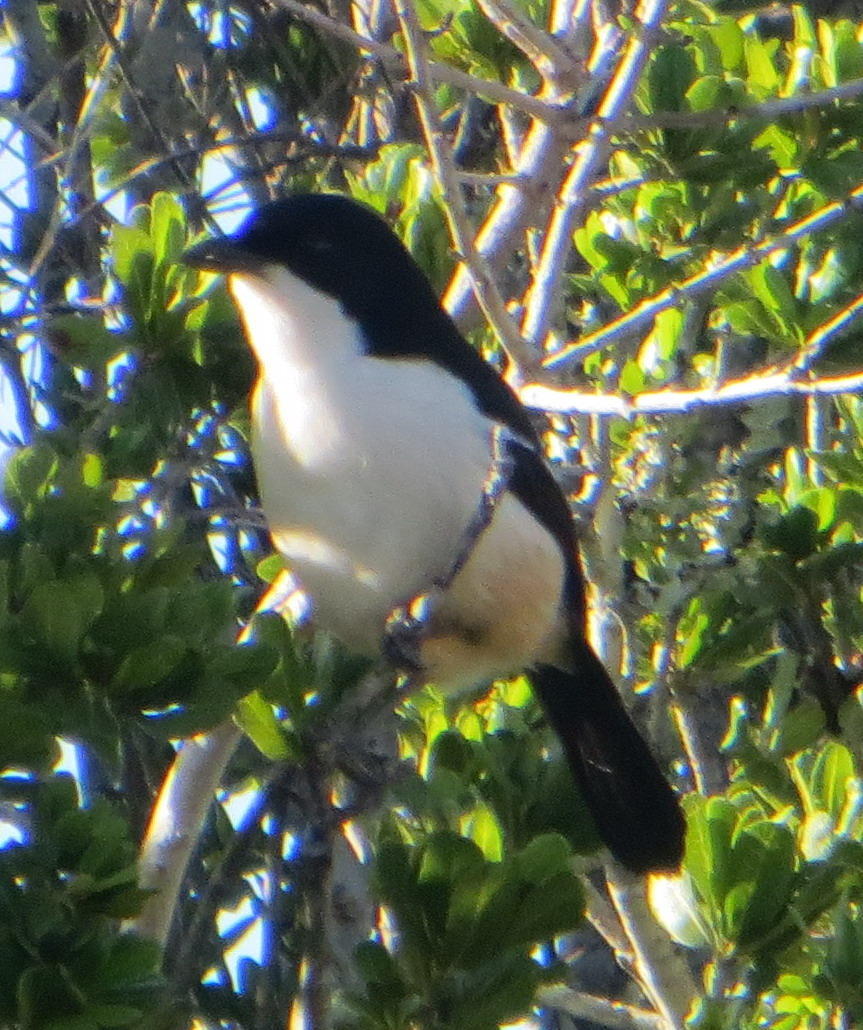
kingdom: Animalia
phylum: Chordata
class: Aves
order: Passeriformes
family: Malaconotidae
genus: Laniarius
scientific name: Laniarius ferrugineus
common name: Southern boubou
